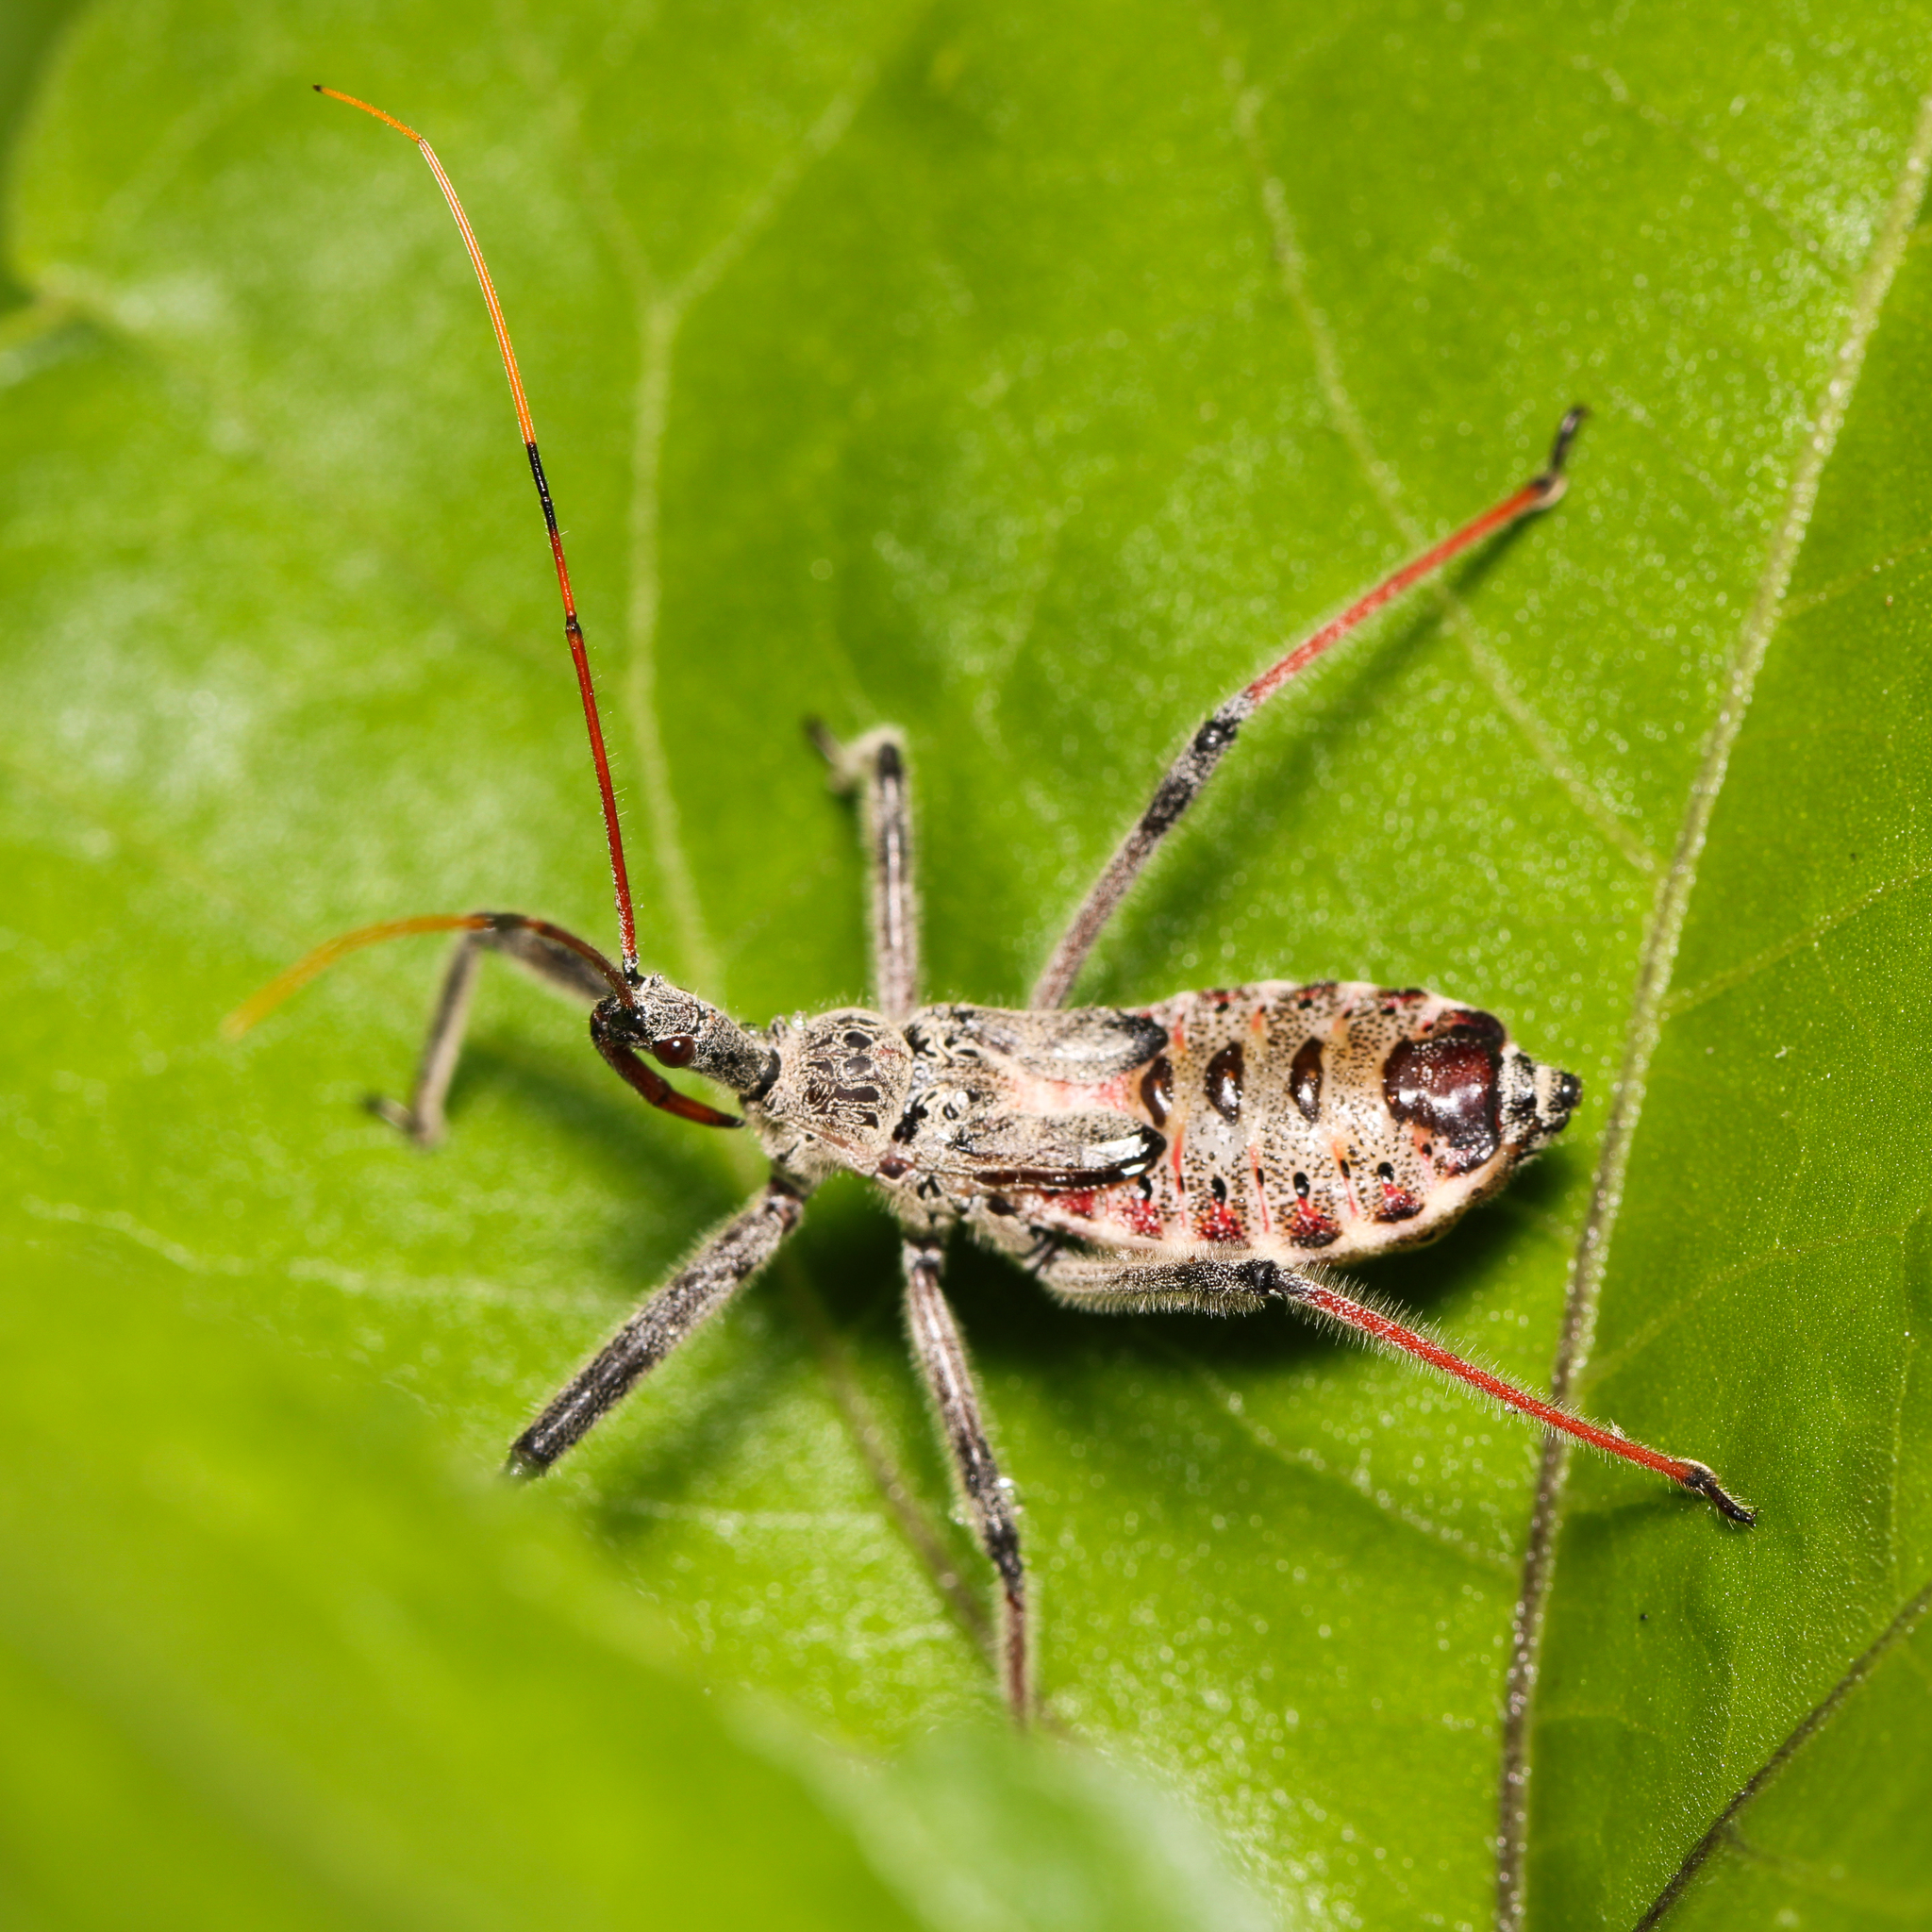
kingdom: Animalia
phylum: Arthropoda
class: Insecta
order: Hemiptera
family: Reduviidae
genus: Arilus
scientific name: Arilus cristatus
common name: North american wheel bug
